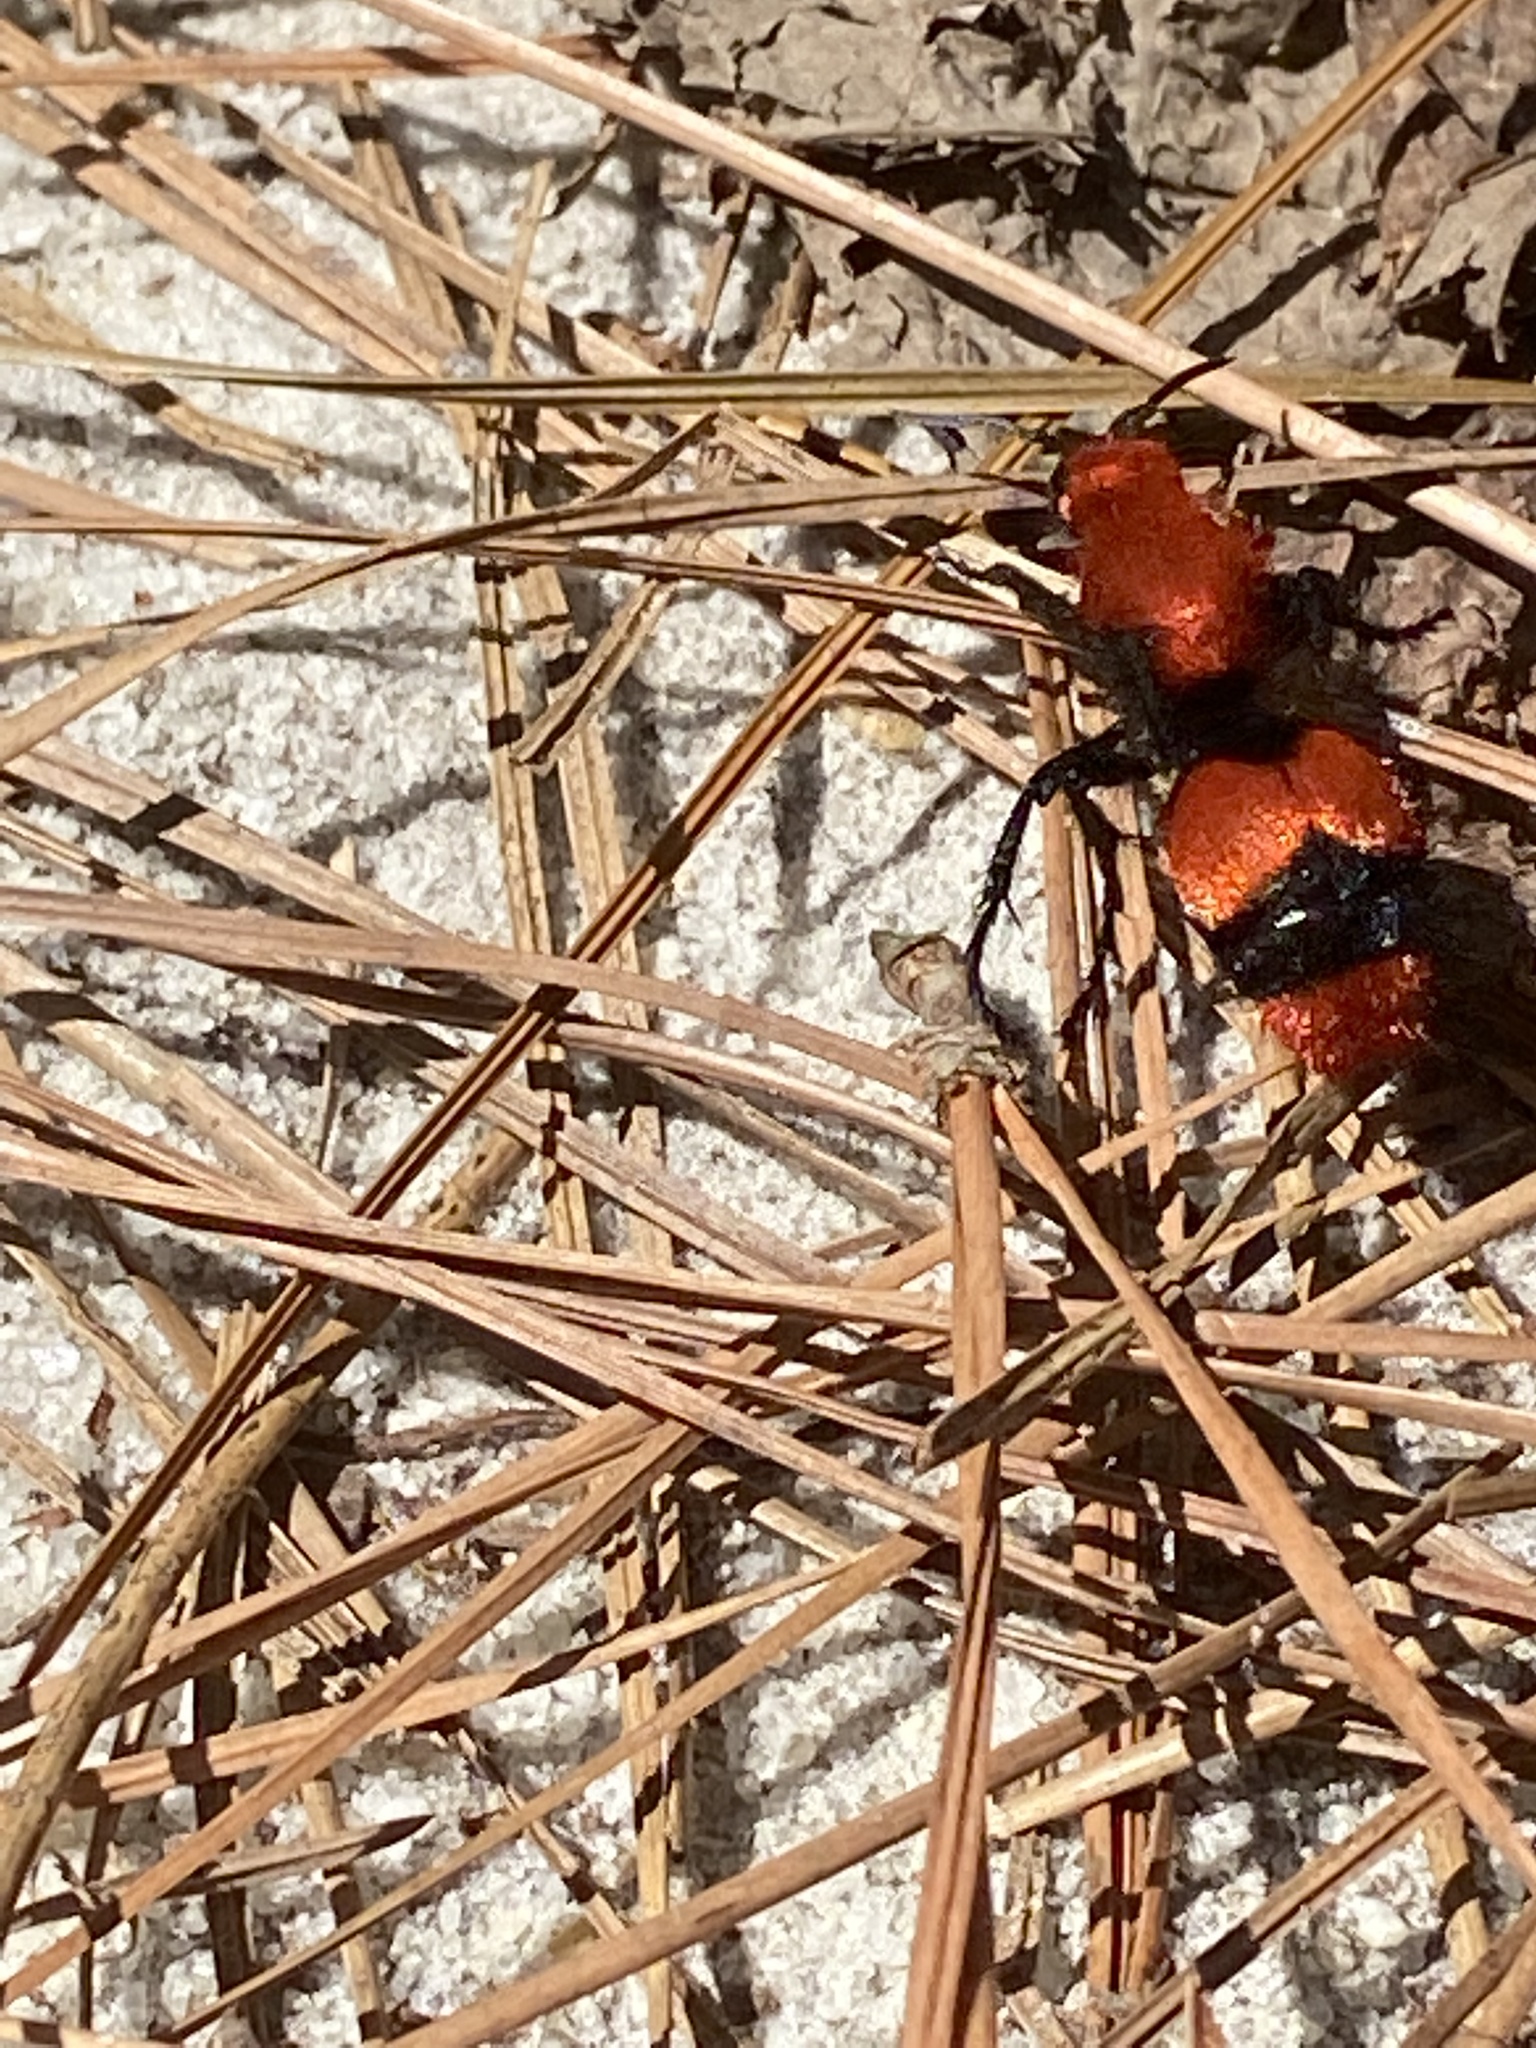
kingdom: Animalia
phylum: Arthropoda
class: Insecta
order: Hymenoptera
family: Mutillidae
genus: Dasymutilla
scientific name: Dasymutilla occidentalis
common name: Common eastern velvet ant
